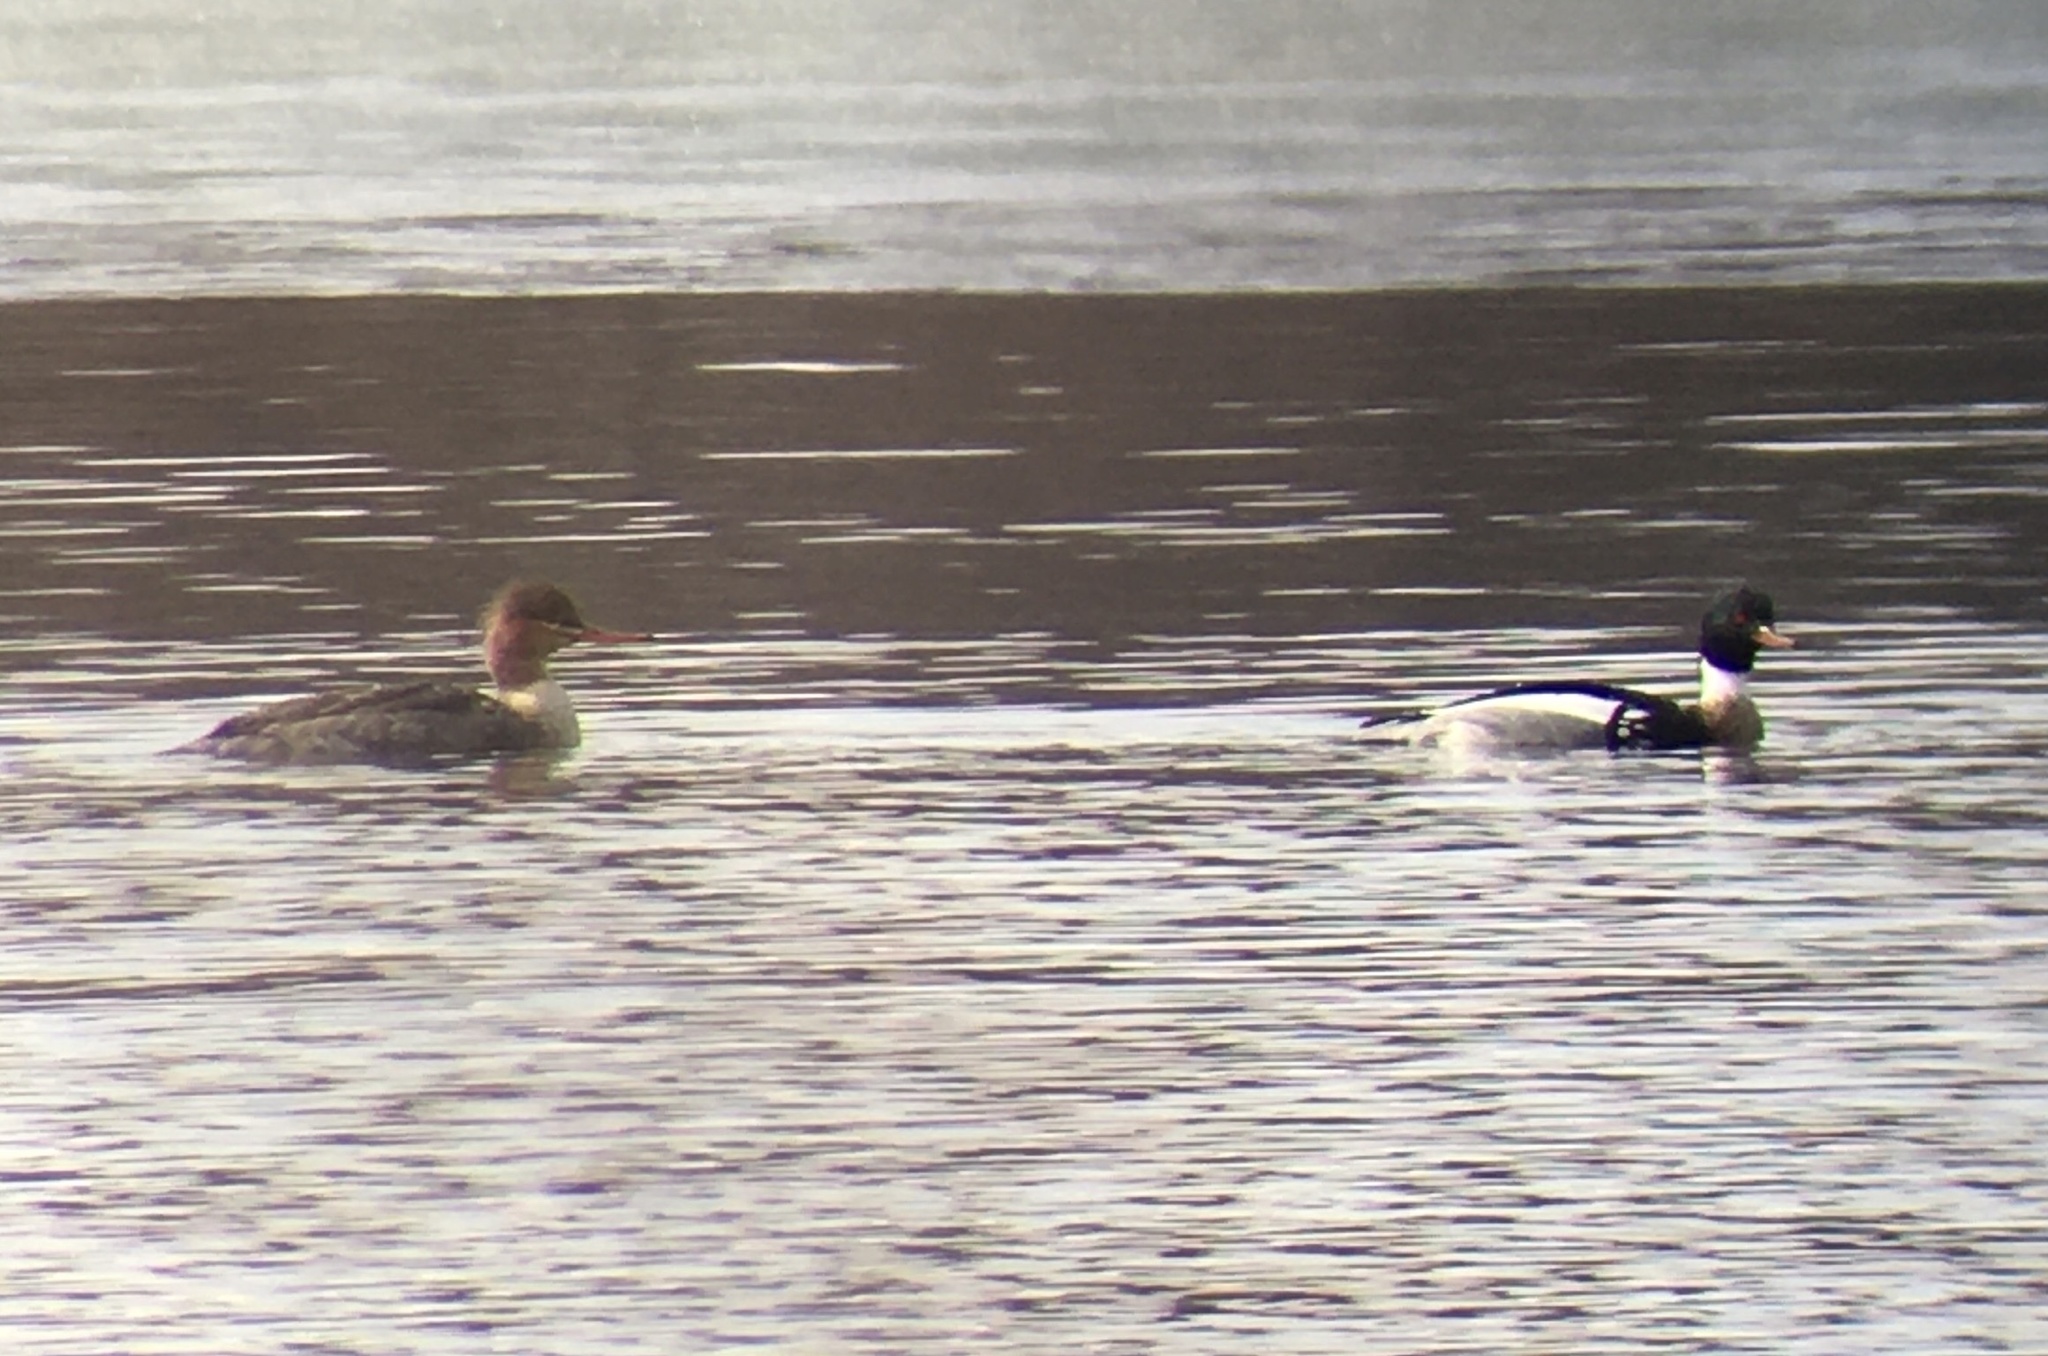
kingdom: Animalia
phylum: Chordata
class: Aves
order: Anseriformes
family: Anatidae
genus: Mergus
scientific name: Mergus serrator
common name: Red-breasted merganser
